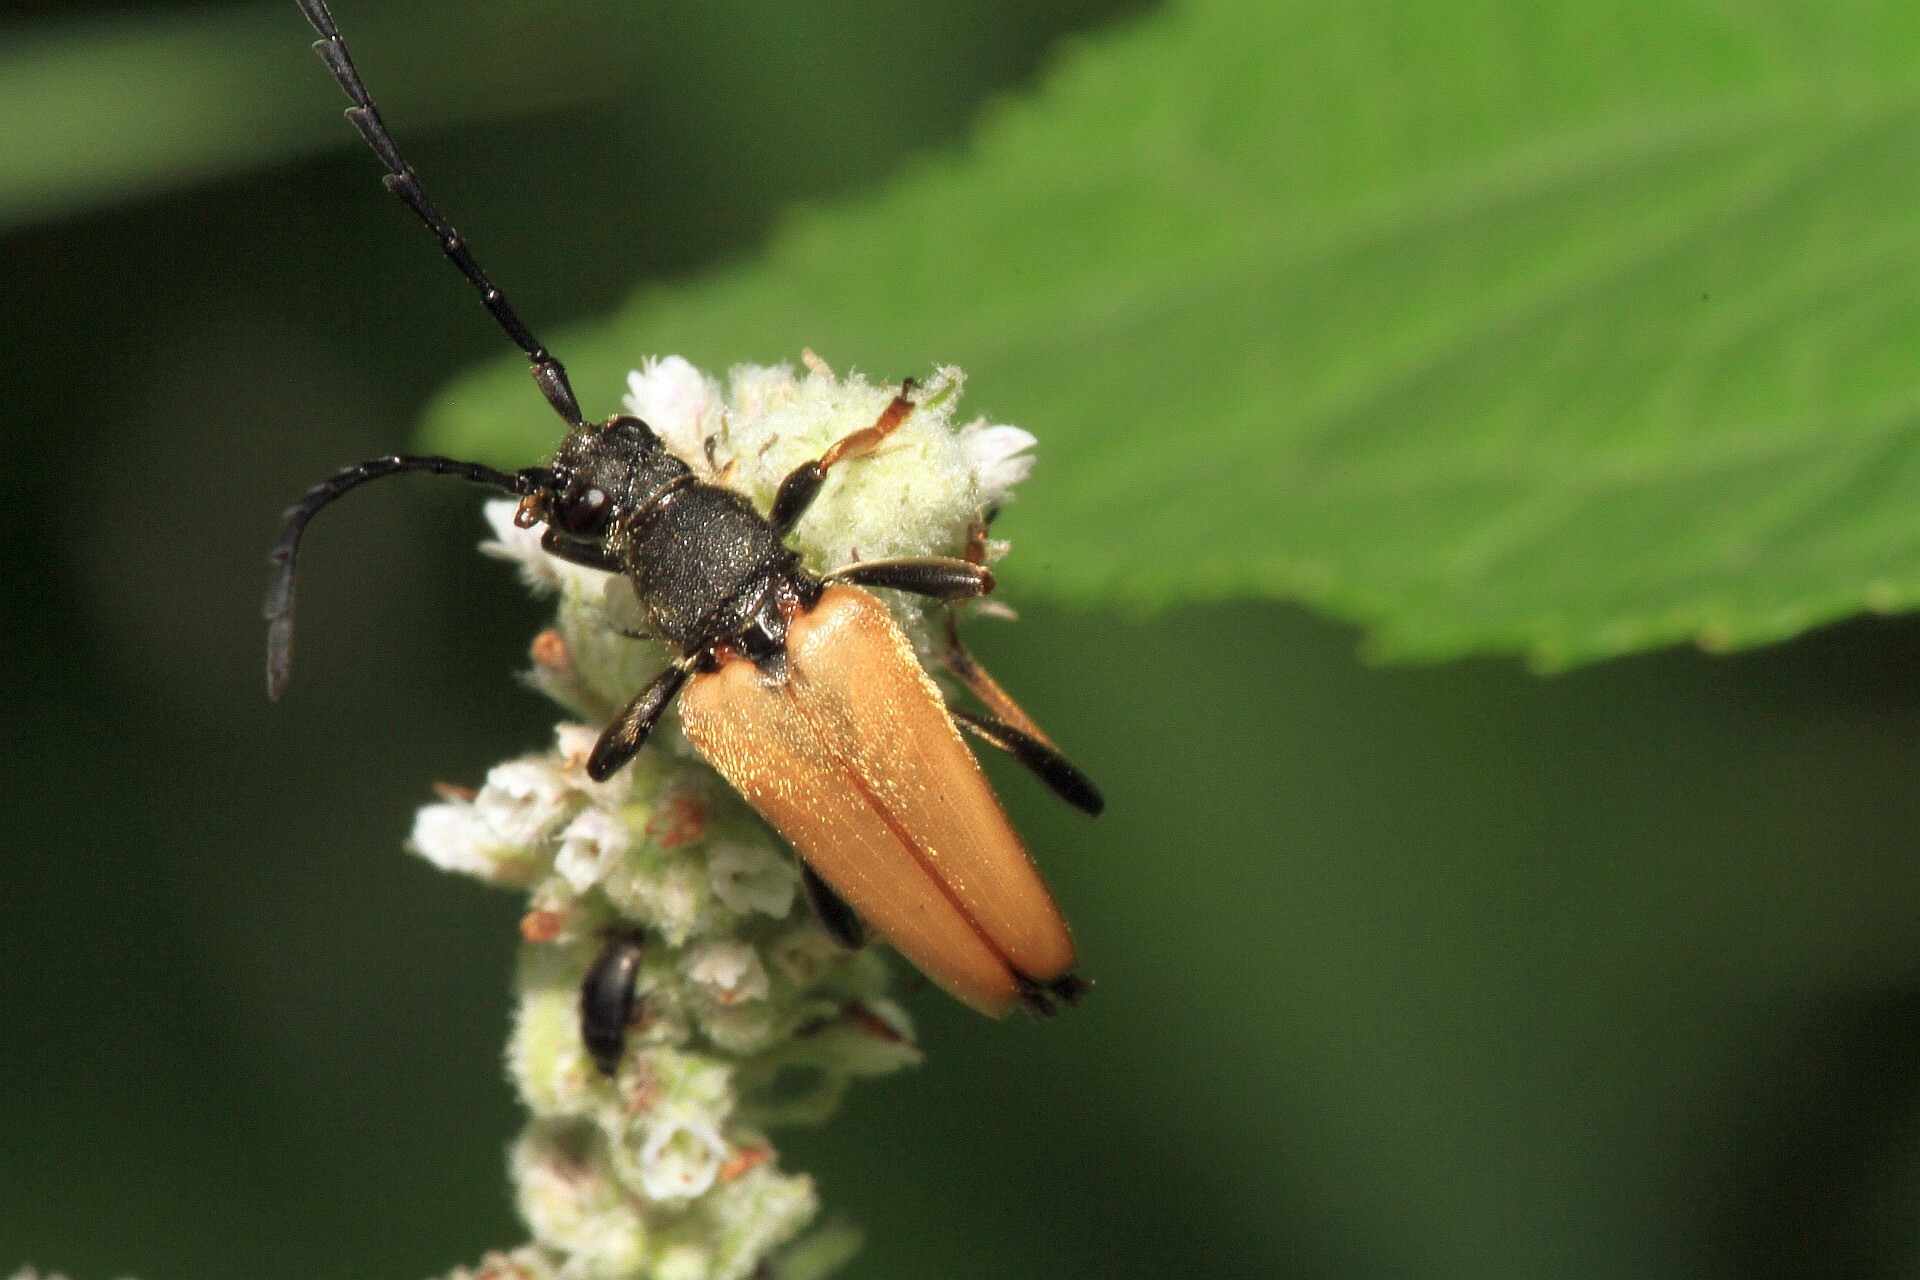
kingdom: Animalia
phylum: Arthropoda
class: Insecta
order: Coleoptera
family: Cerambycidae
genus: Stictoleptura
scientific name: Stictoleptura rubra
